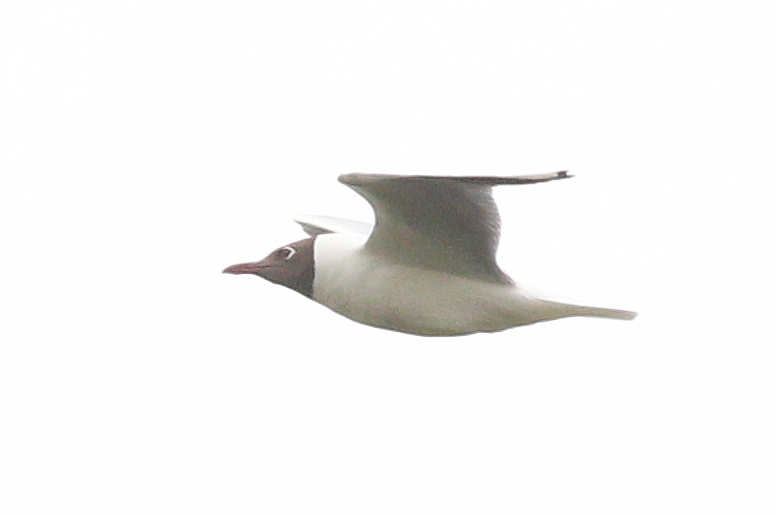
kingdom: Animalia
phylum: Chordata
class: Aves
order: Charadriiformes
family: Laridae
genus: Chroicocephalus
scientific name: Chroicocephalus maculipennis
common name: Brown-hooded gull
